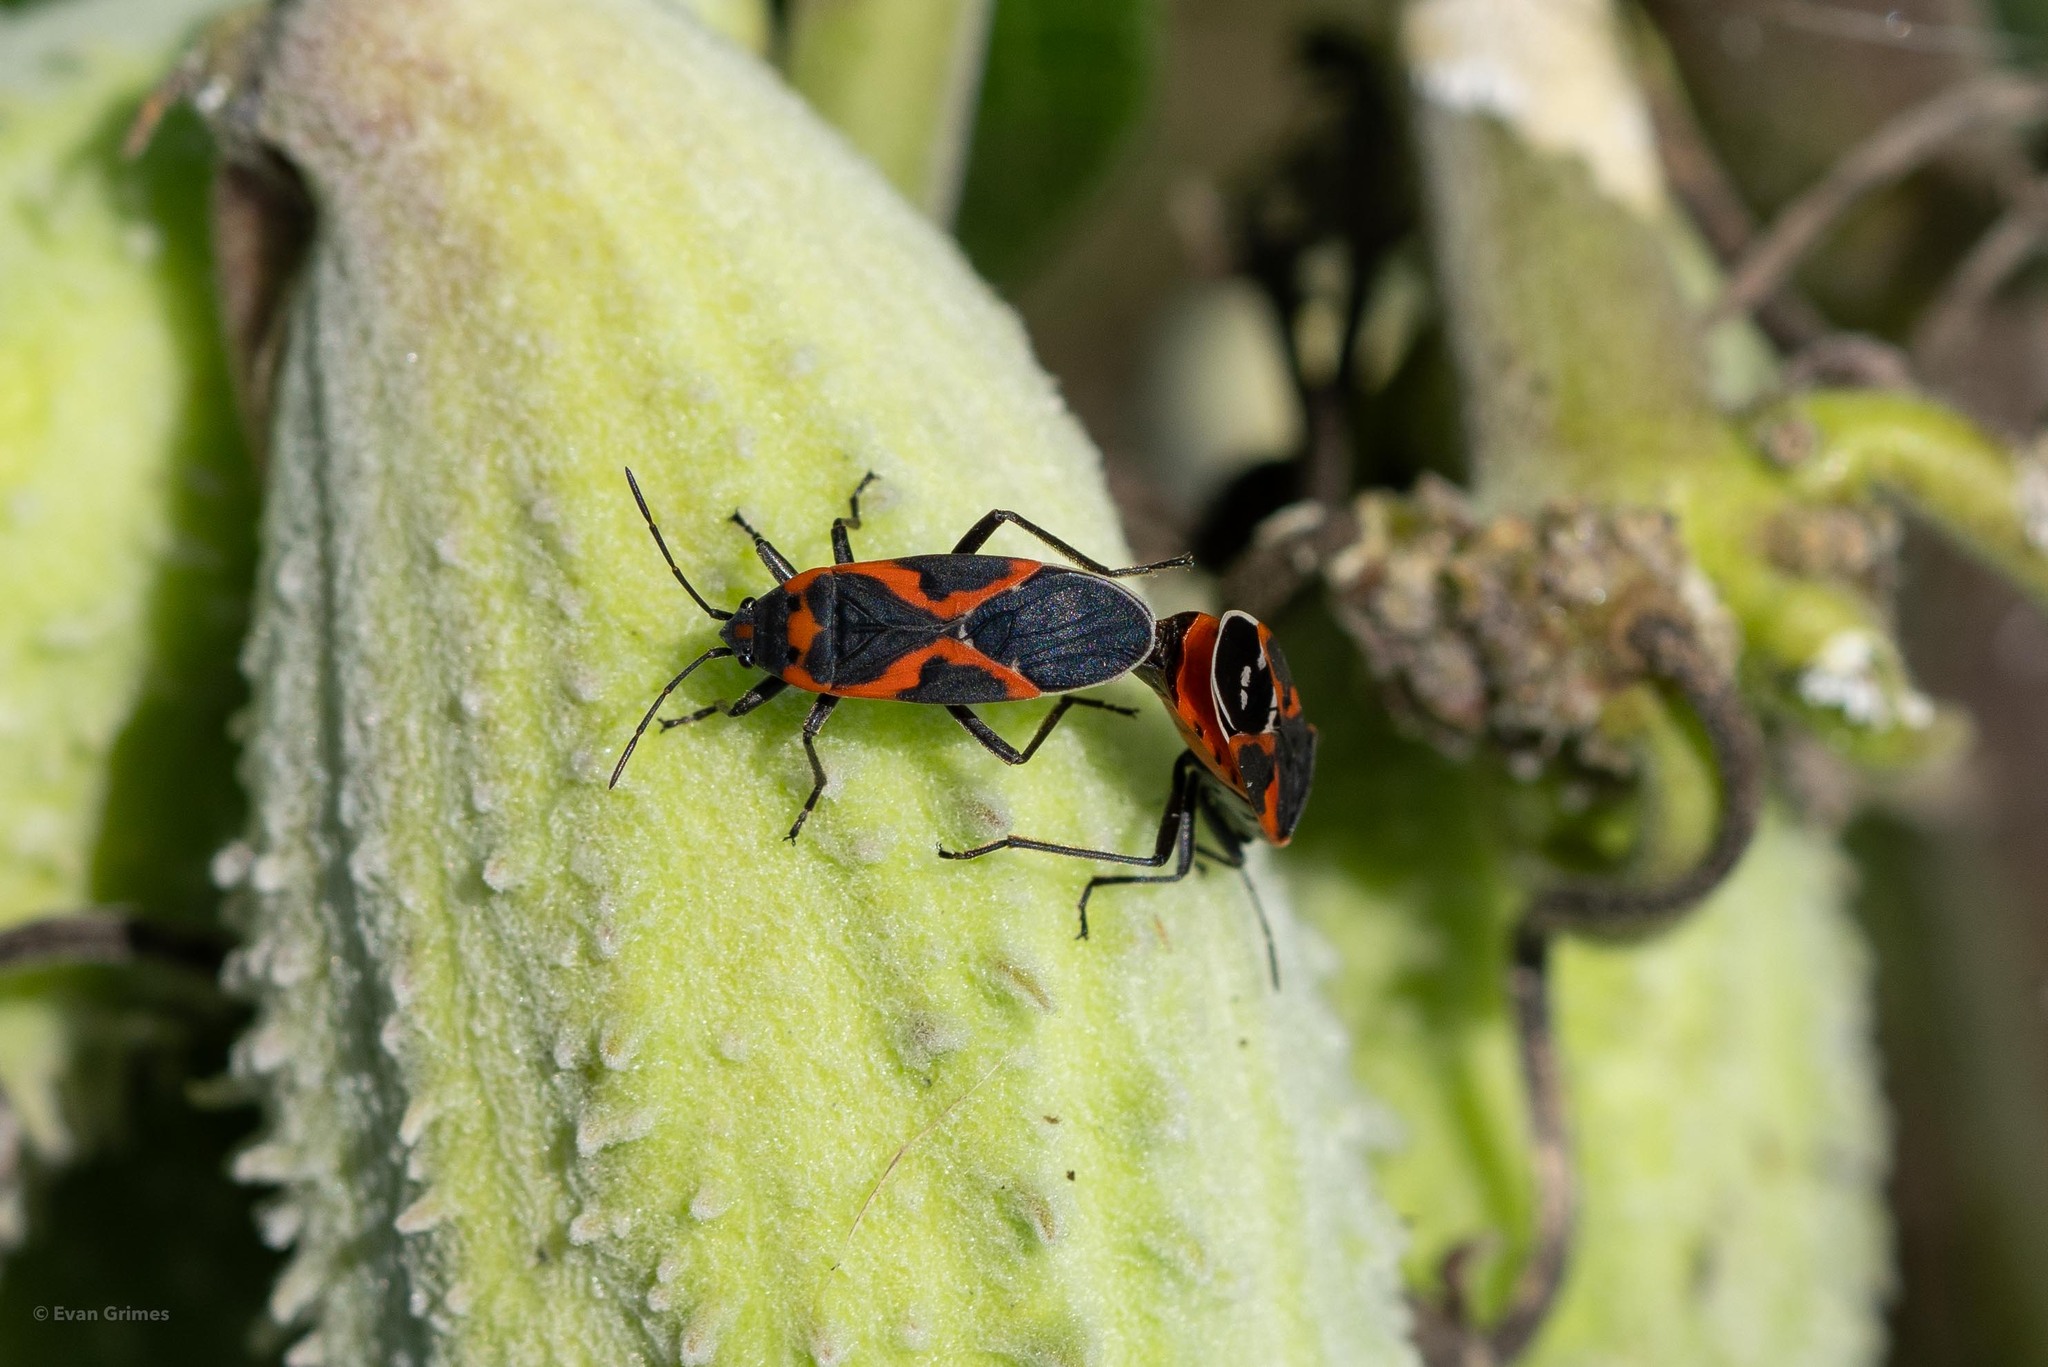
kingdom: Animalia
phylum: Arthropoda
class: Insecta
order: Hemiptera
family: Lygaeidae
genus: Lygaeus
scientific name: Lygaeus kalmii
